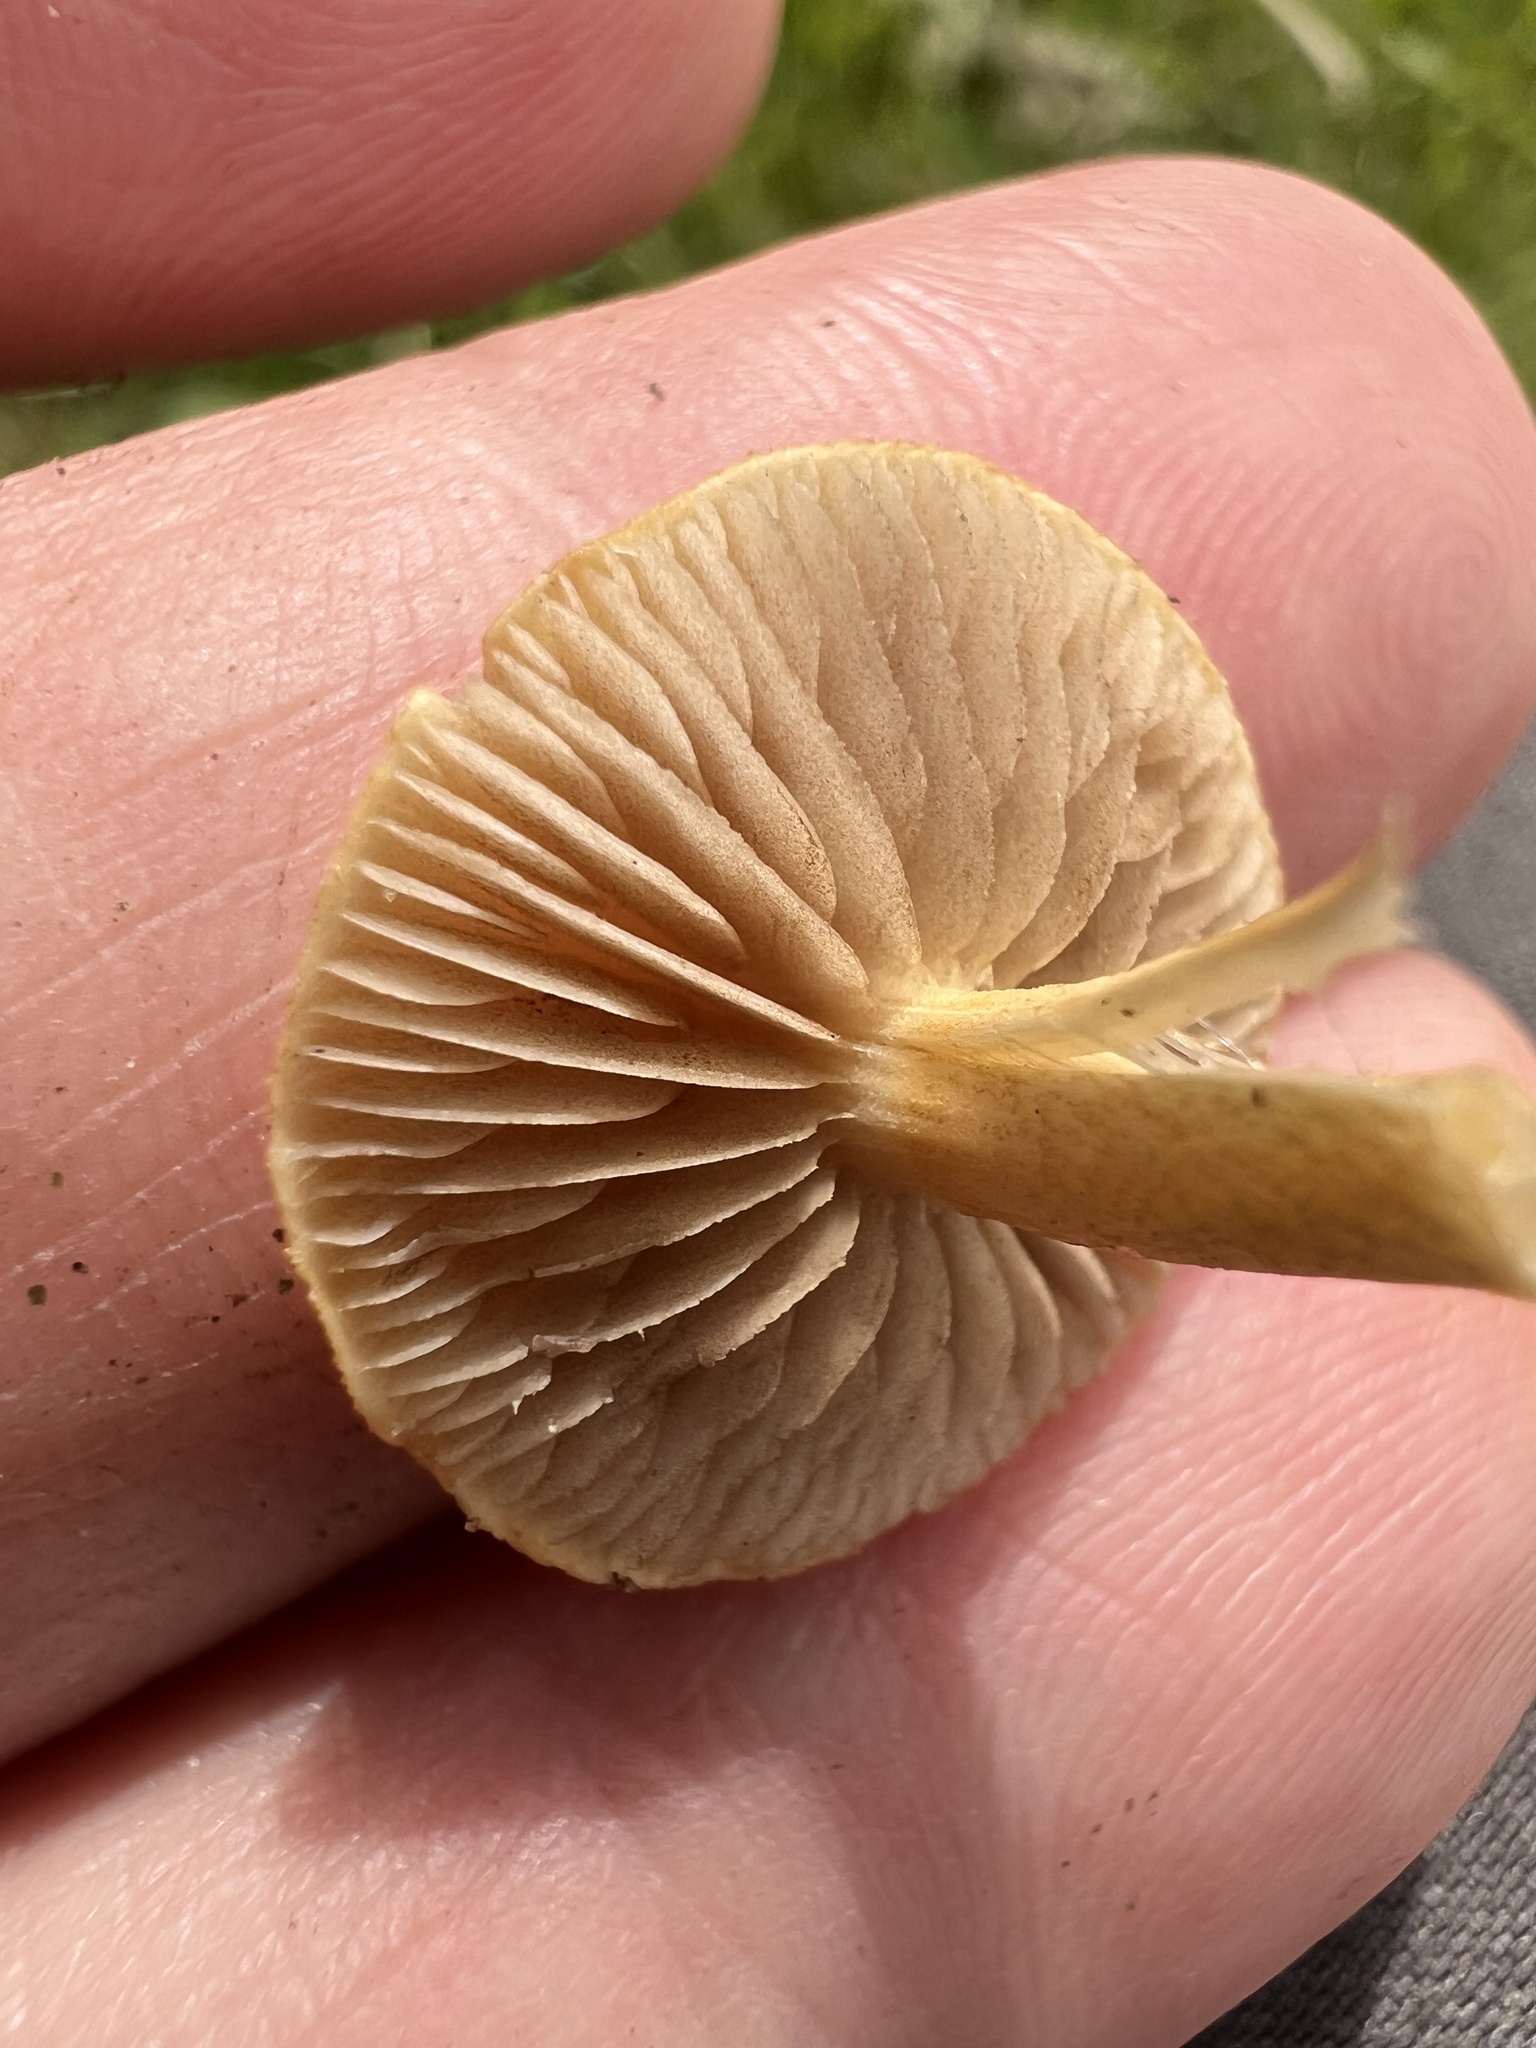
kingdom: Fungi
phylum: Basidiomycota
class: Agaricomycetes
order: Agaricales
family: Strophariaceae
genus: Agrocybe
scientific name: Agrocybe pediades
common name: Common fieldcap
